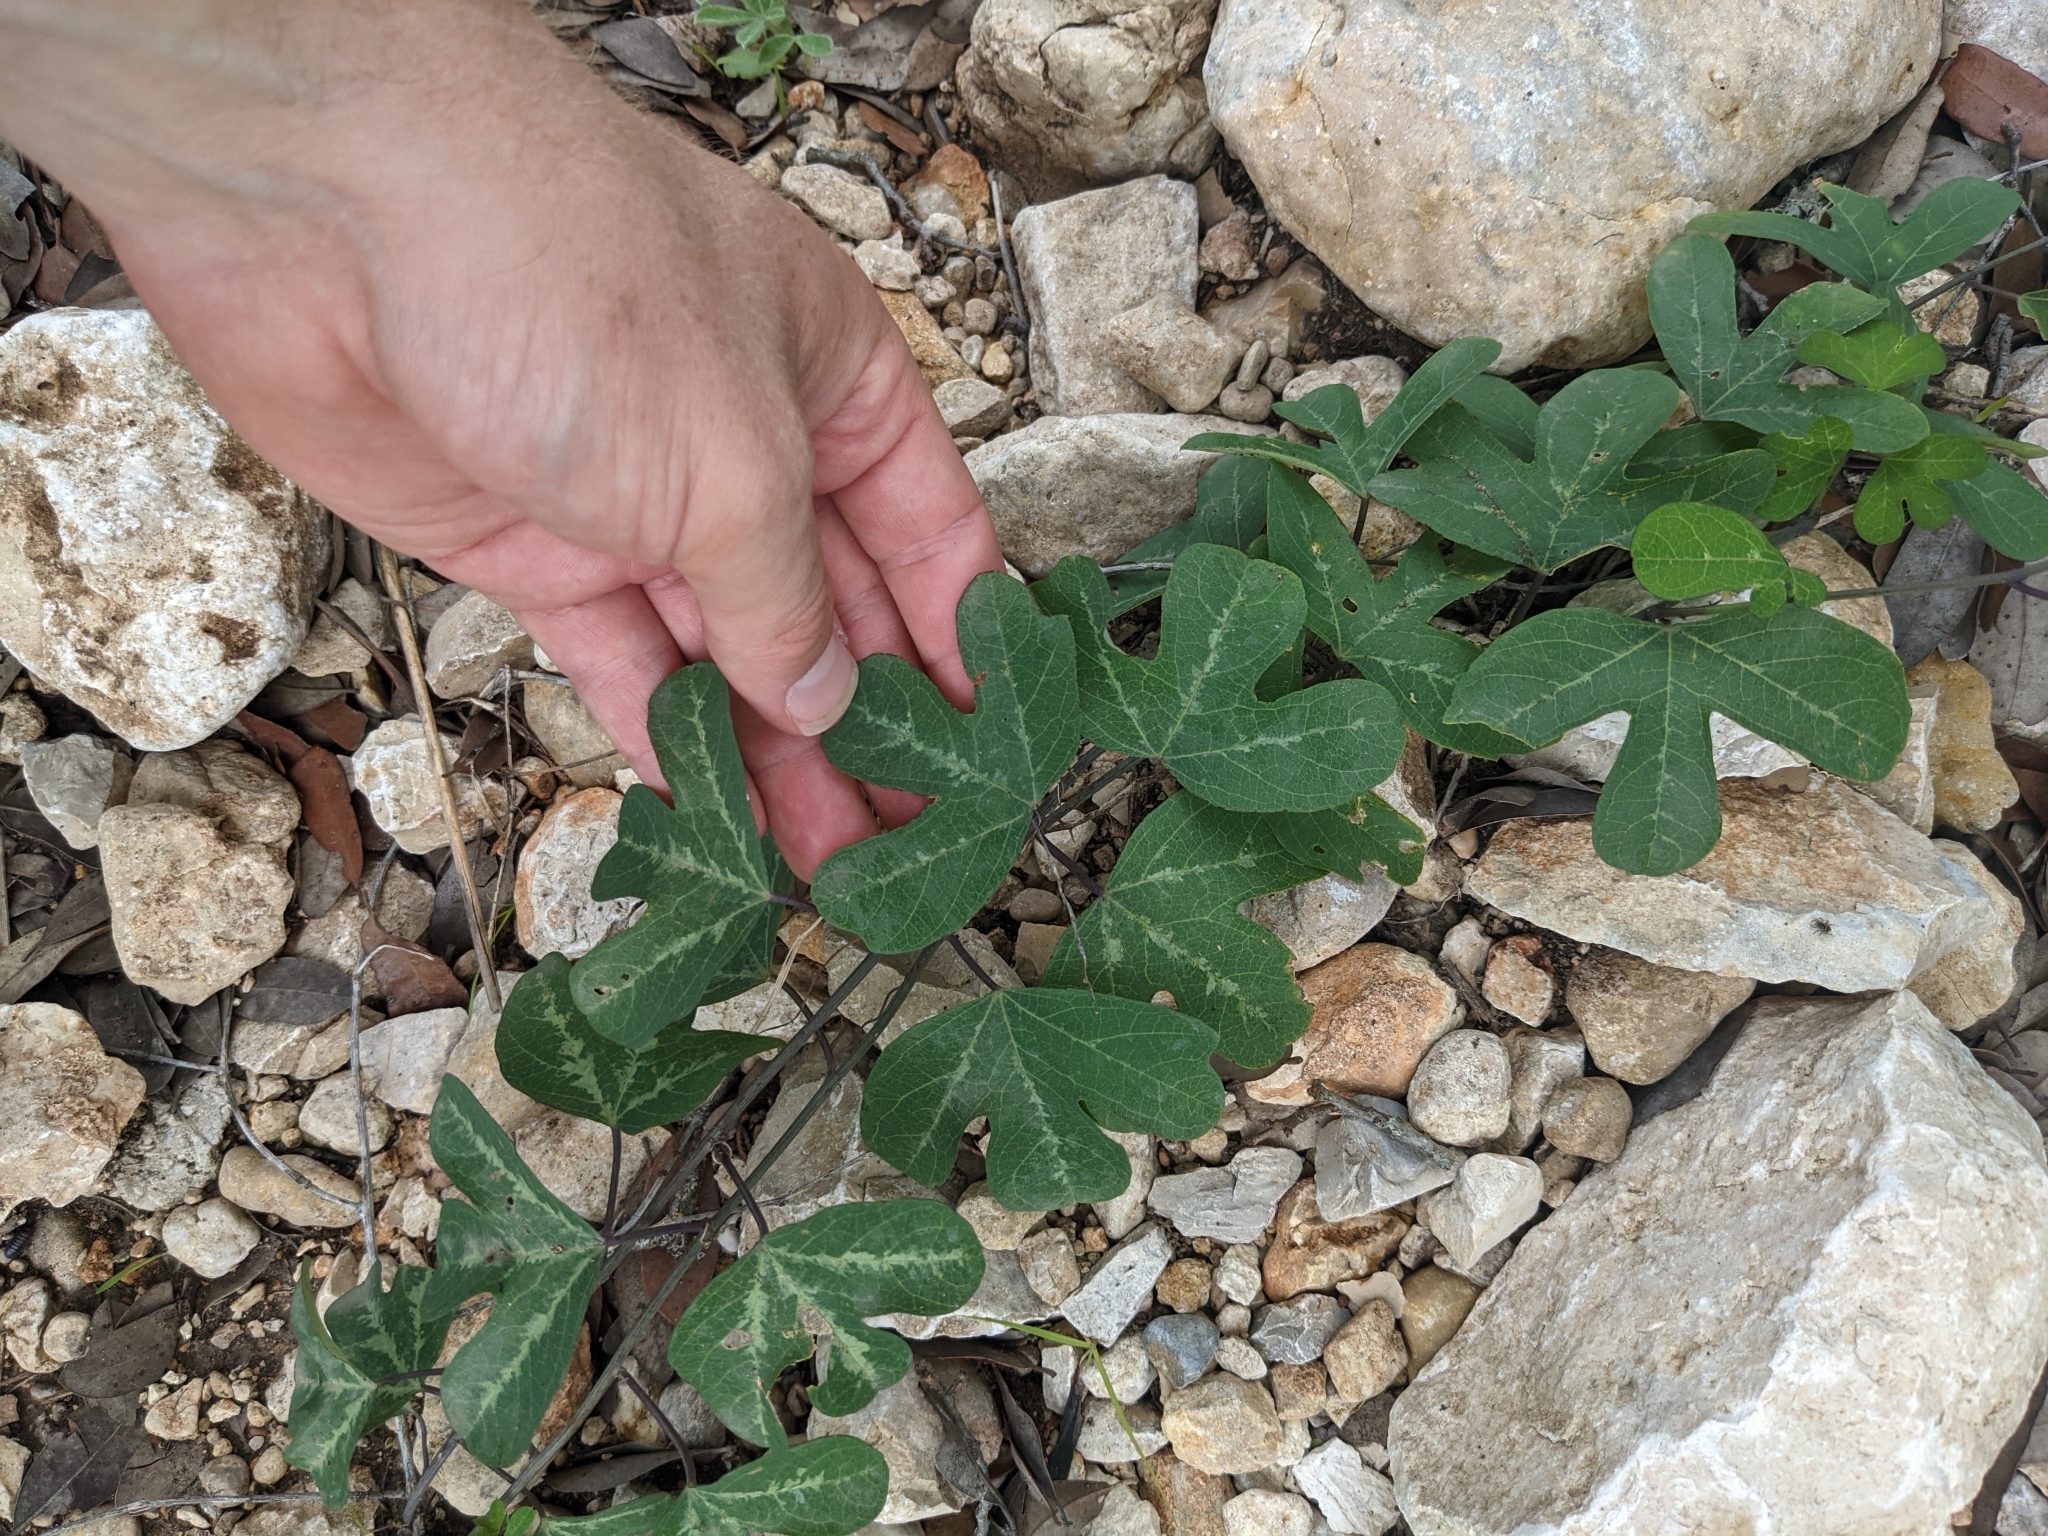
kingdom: Plantae
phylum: Tracheophyta
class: Magnoliopsida
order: Malpighiales
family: Passifloraceae
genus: Passiflora
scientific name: Passiflora affinis
